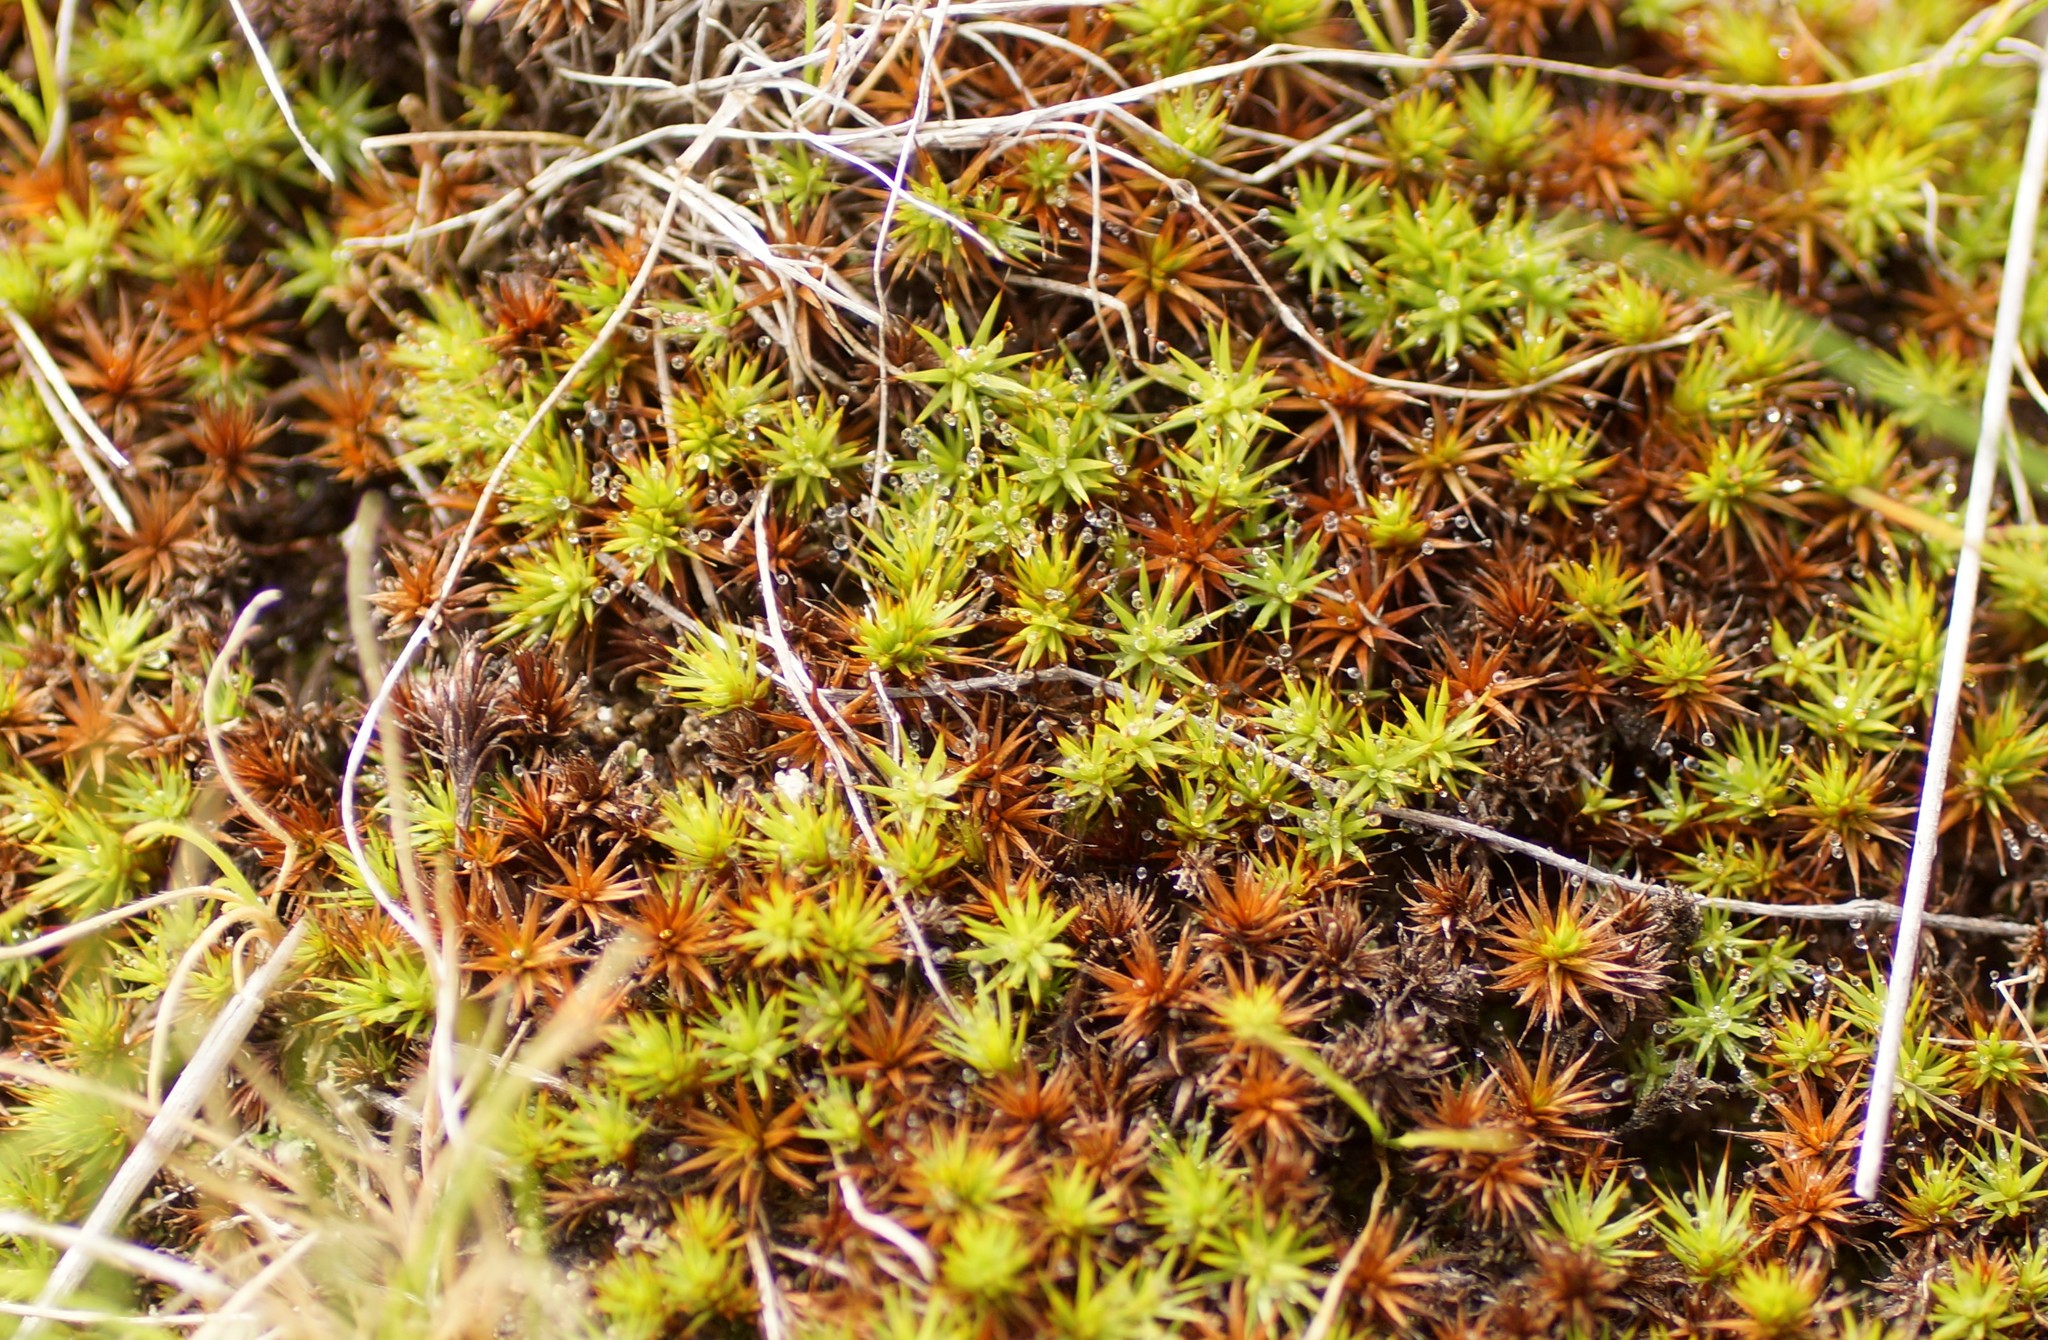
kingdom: Plantae
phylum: Bryophyta
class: Polytrichopsida
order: Polytrichales
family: Polytrichaceae
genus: Polytrichum
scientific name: Polytrichum juniperinum
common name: Juniper haircap moss
